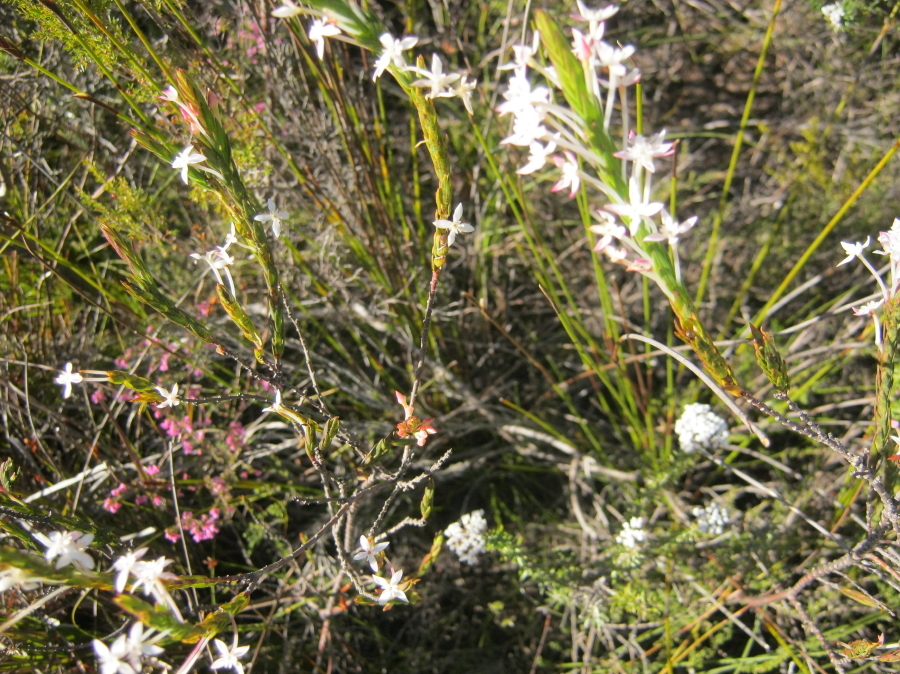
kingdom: Plantae
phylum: Tracheophyta
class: Magnoliopsida
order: Malvales
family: Thymelaeaceae
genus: Struthiola
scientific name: Struthiola myrsinites
